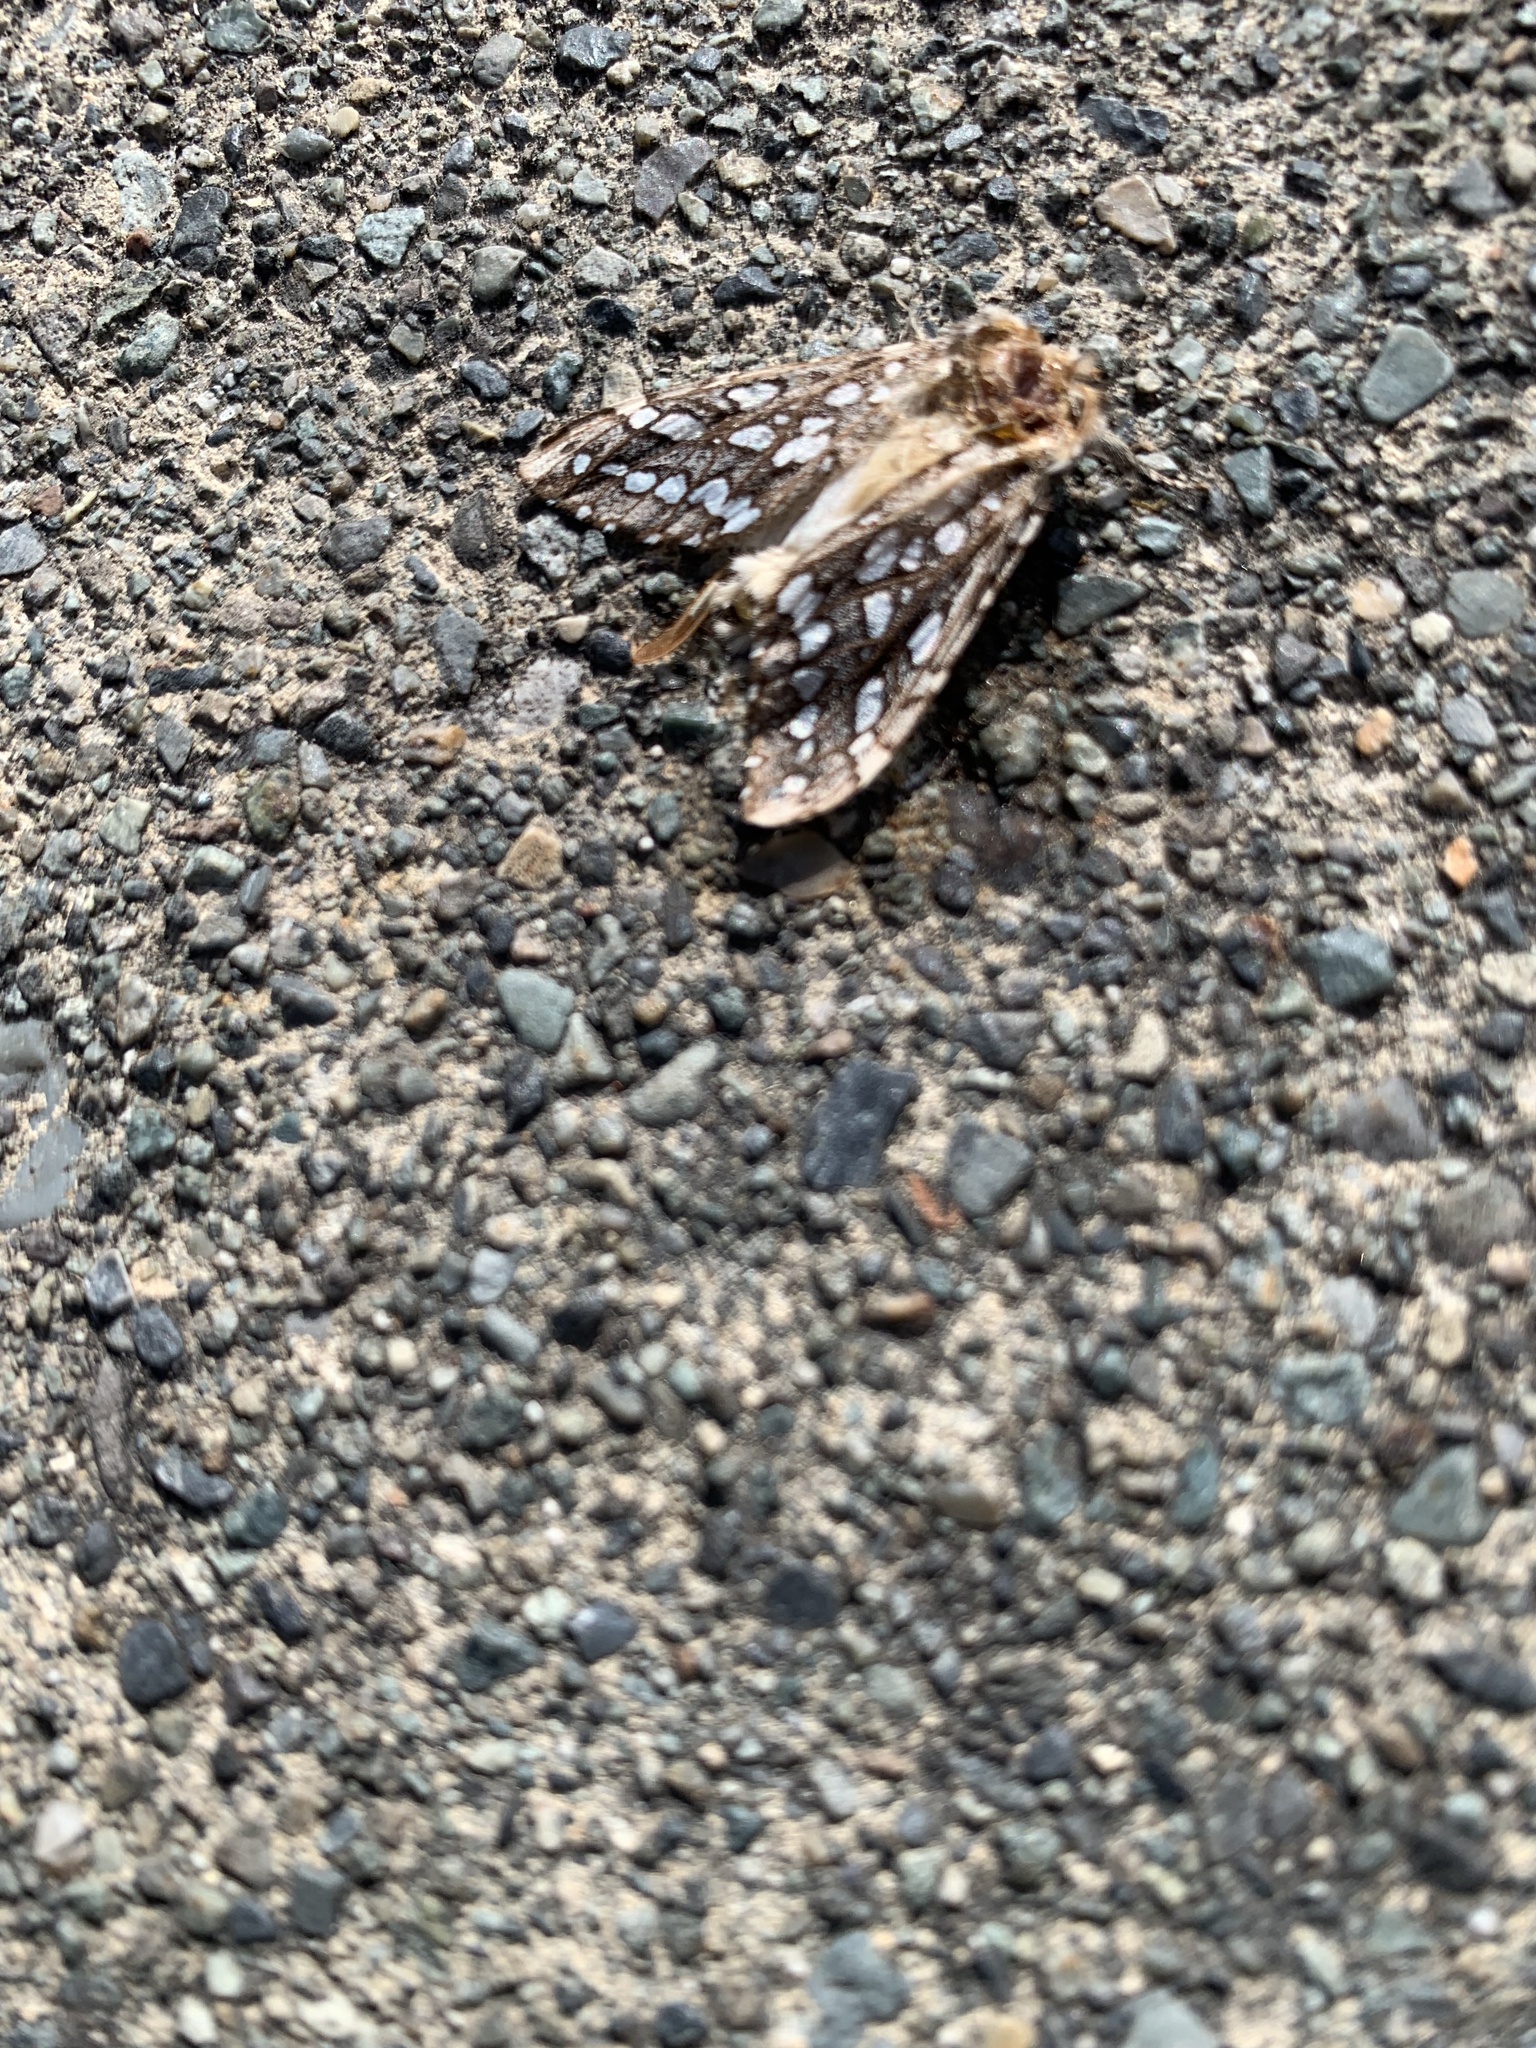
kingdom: Animalia
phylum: Arthropoda
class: Insecta
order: Lepidoptera
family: Erebidae
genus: Lophocampa
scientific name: Lophocampa argentata
